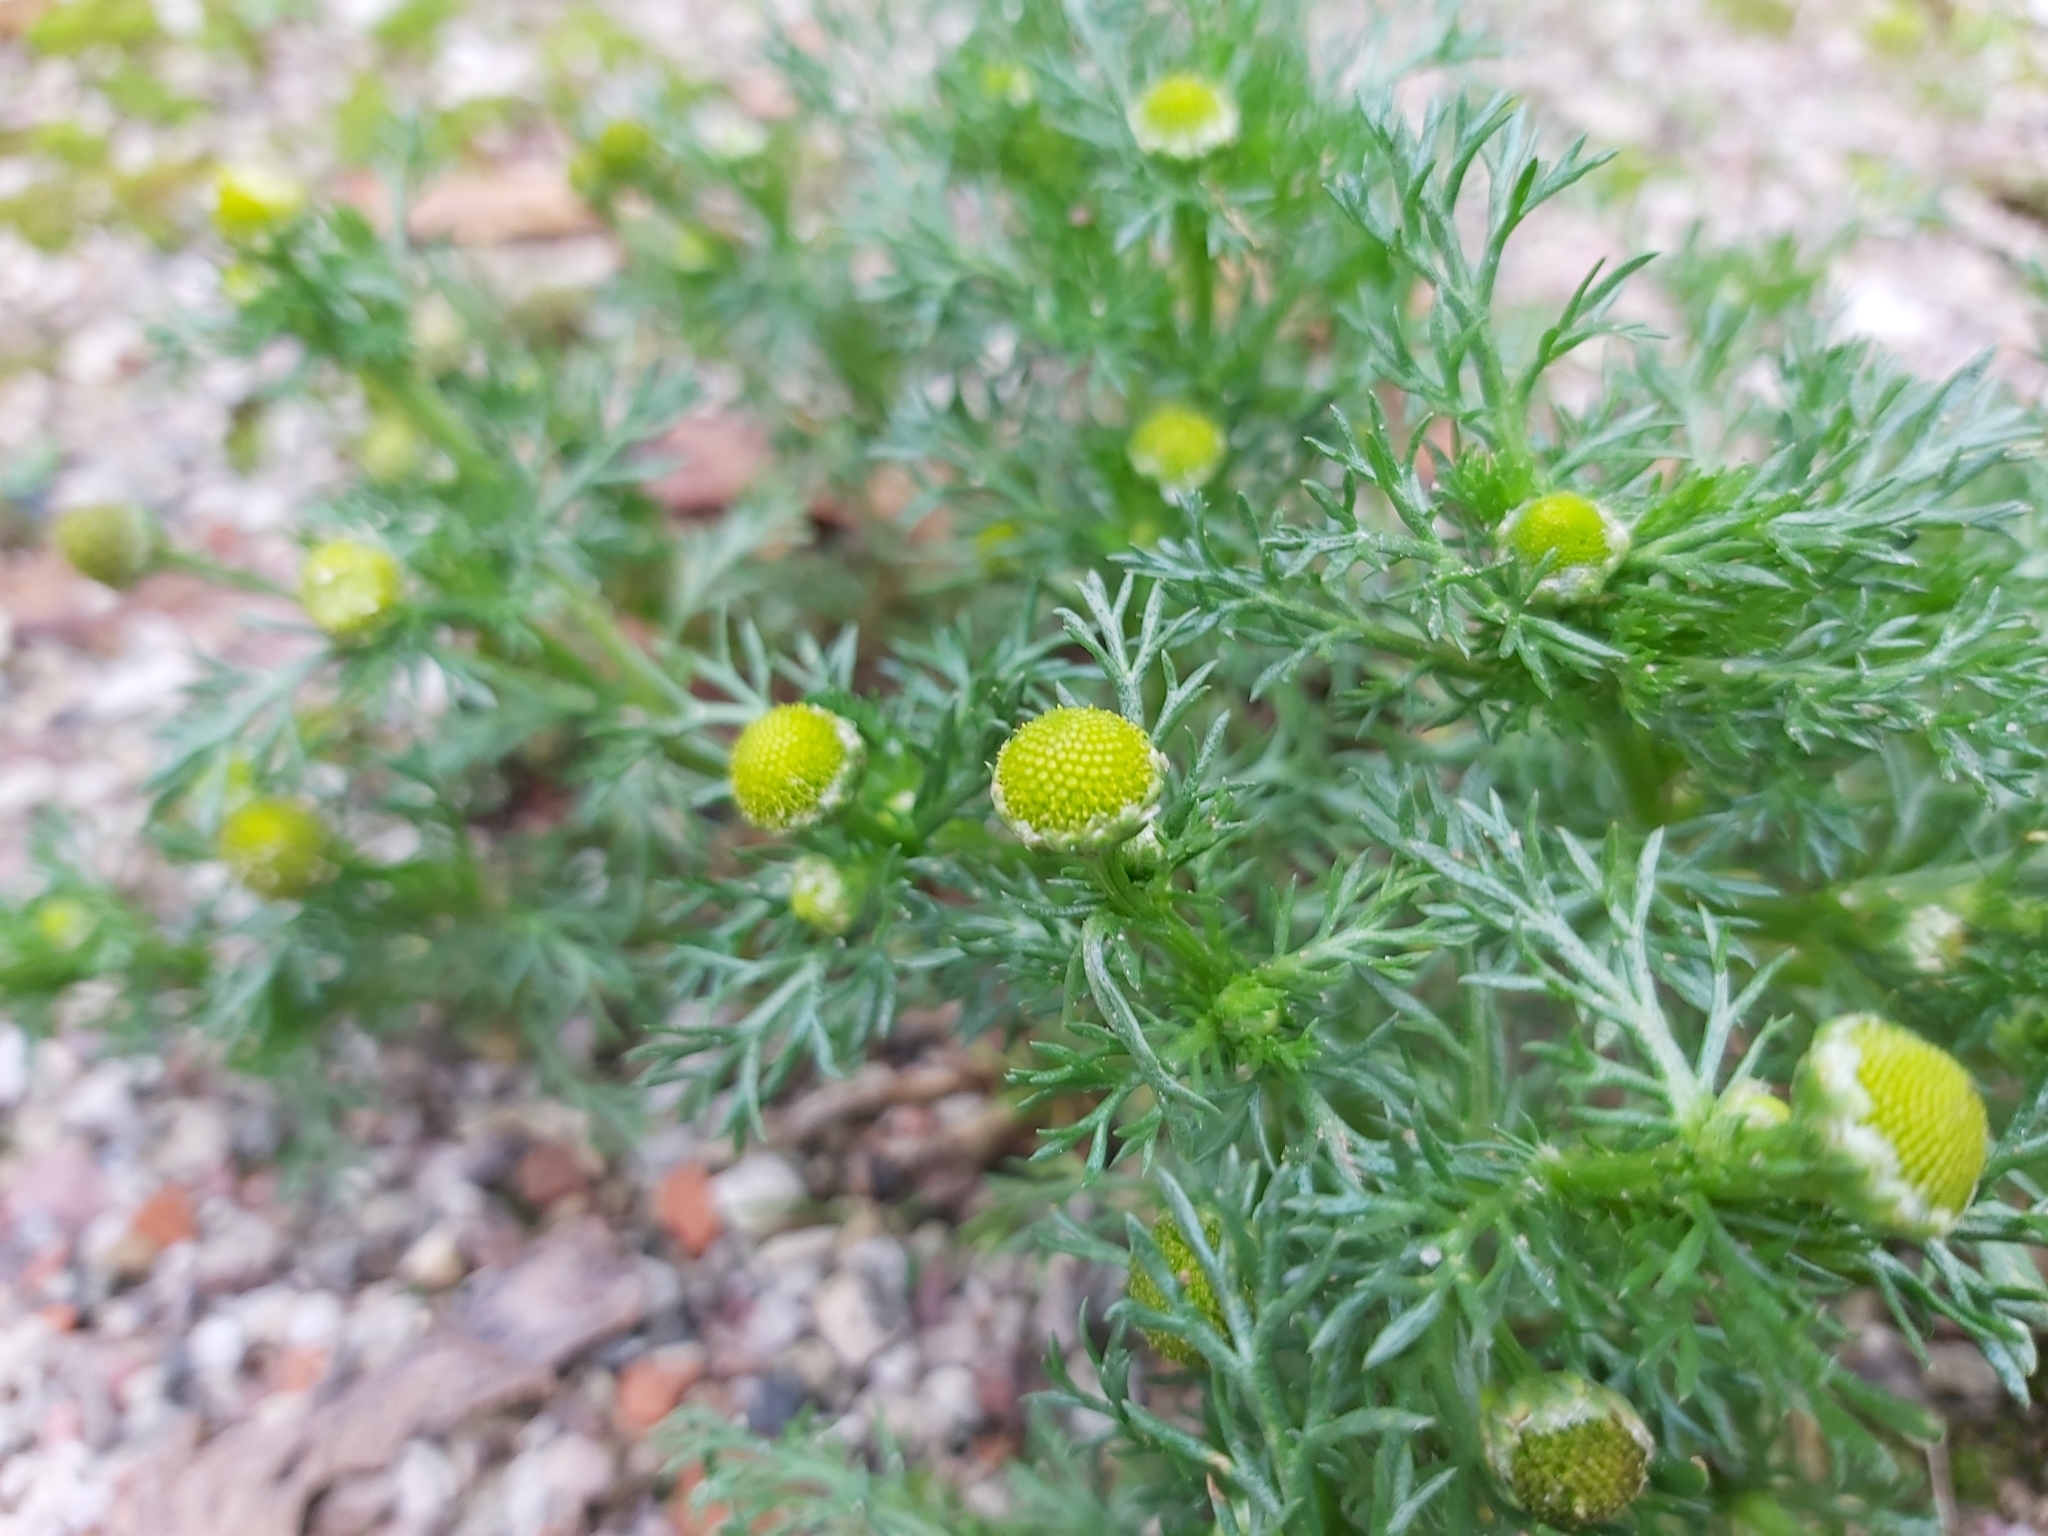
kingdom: Plantae
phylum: Tracheophyta
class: Magnoliopsida
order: Asterales
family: Asteraceae
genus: Matricaria
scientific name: Matricaria discoidea
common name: Disc mayweed
